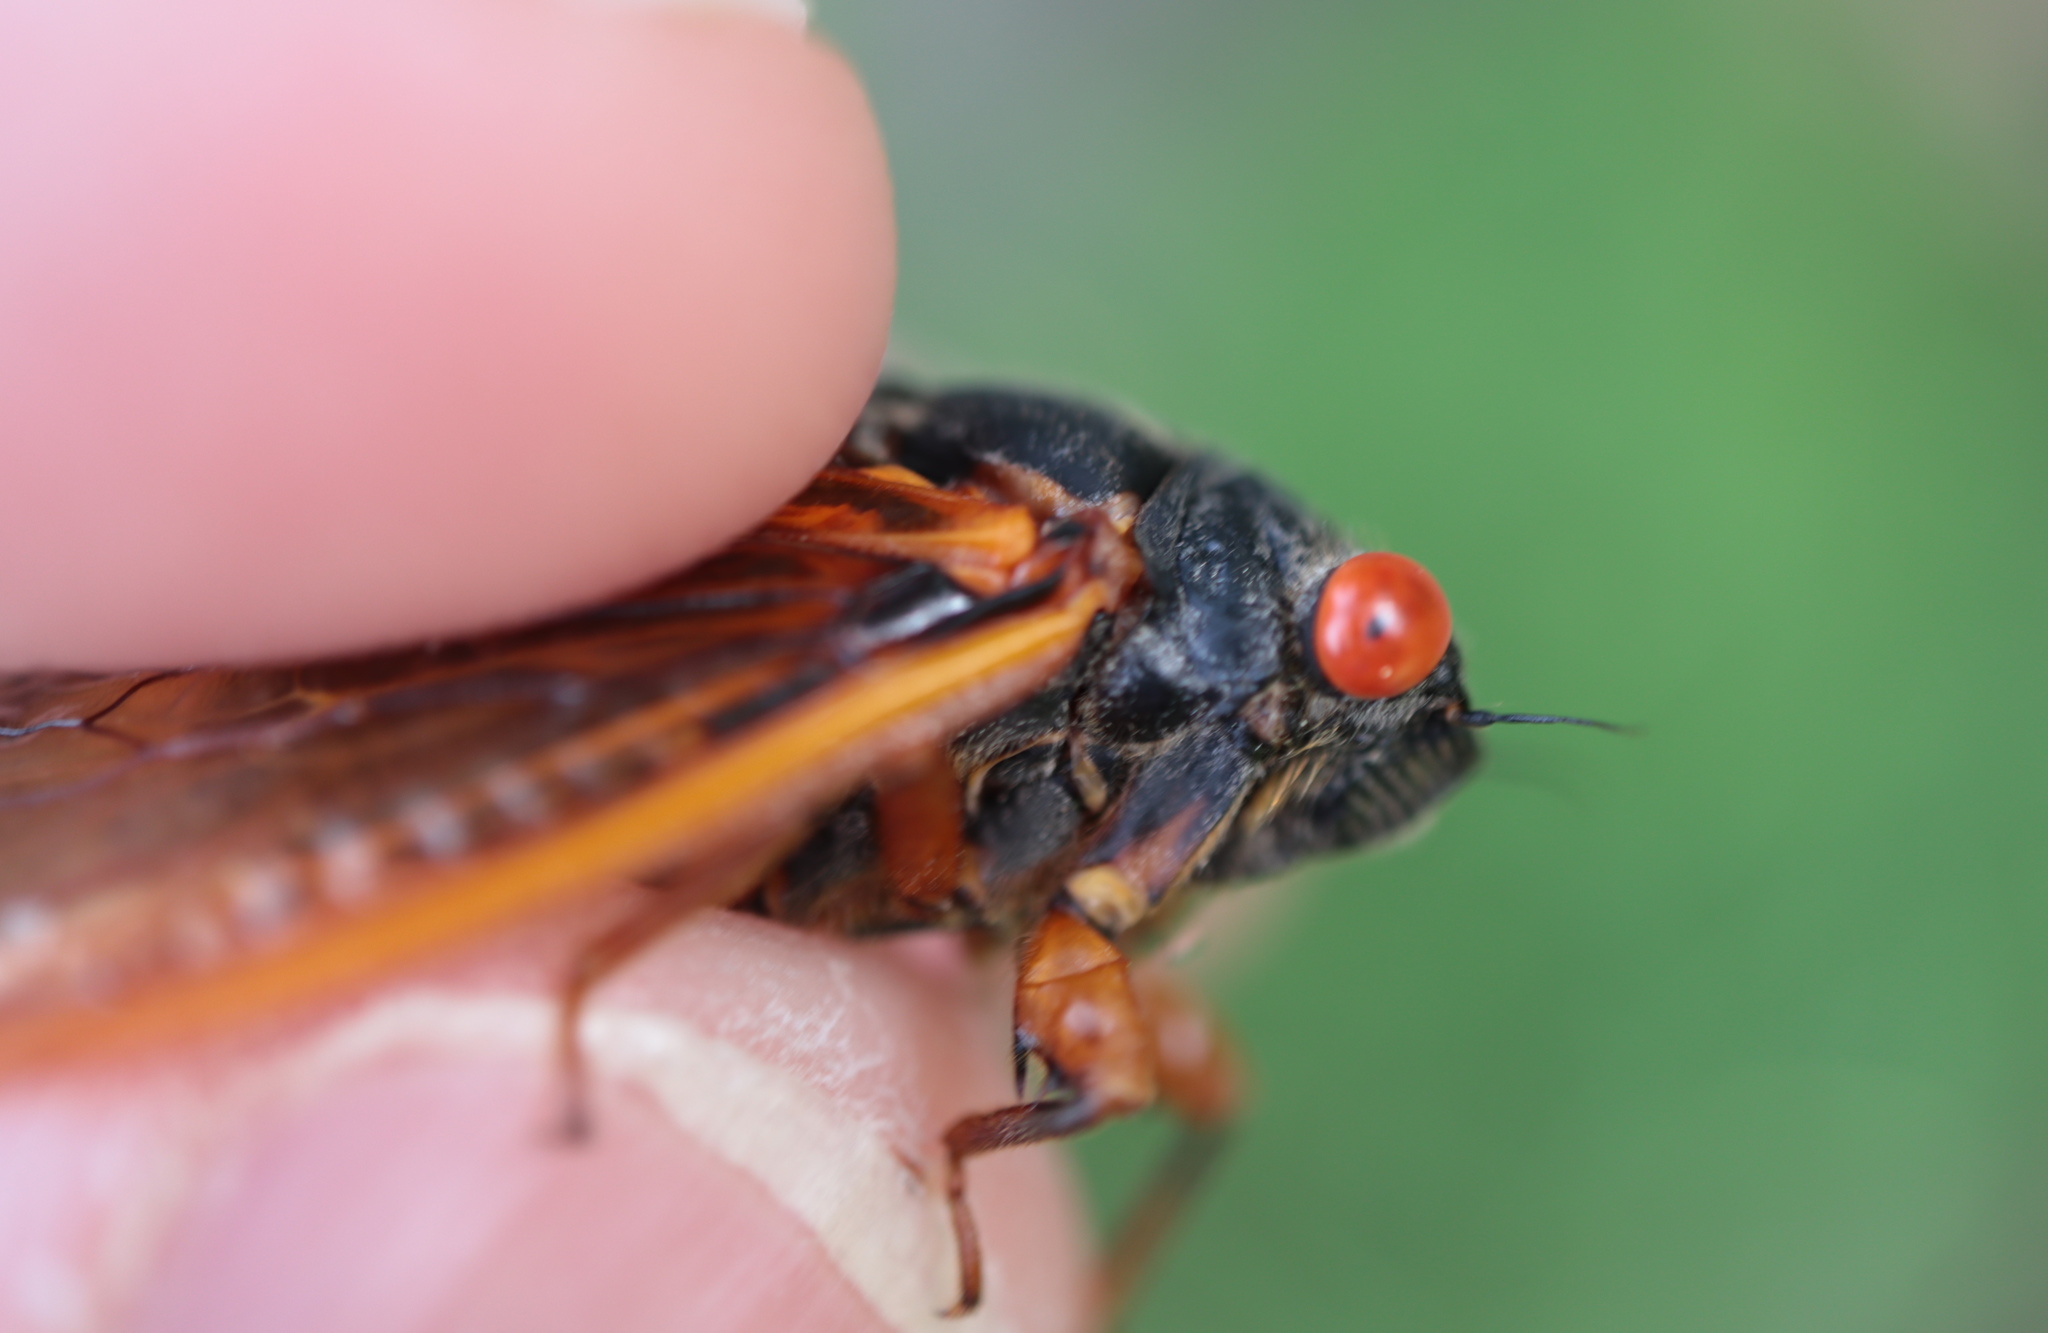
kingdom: Animalia
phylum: Arthropoda
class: Insecta
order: Hemiptera
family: Cicadidae
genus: Magicicada
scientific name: Magicicada cassini
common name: Cassin's 17-year cicada
